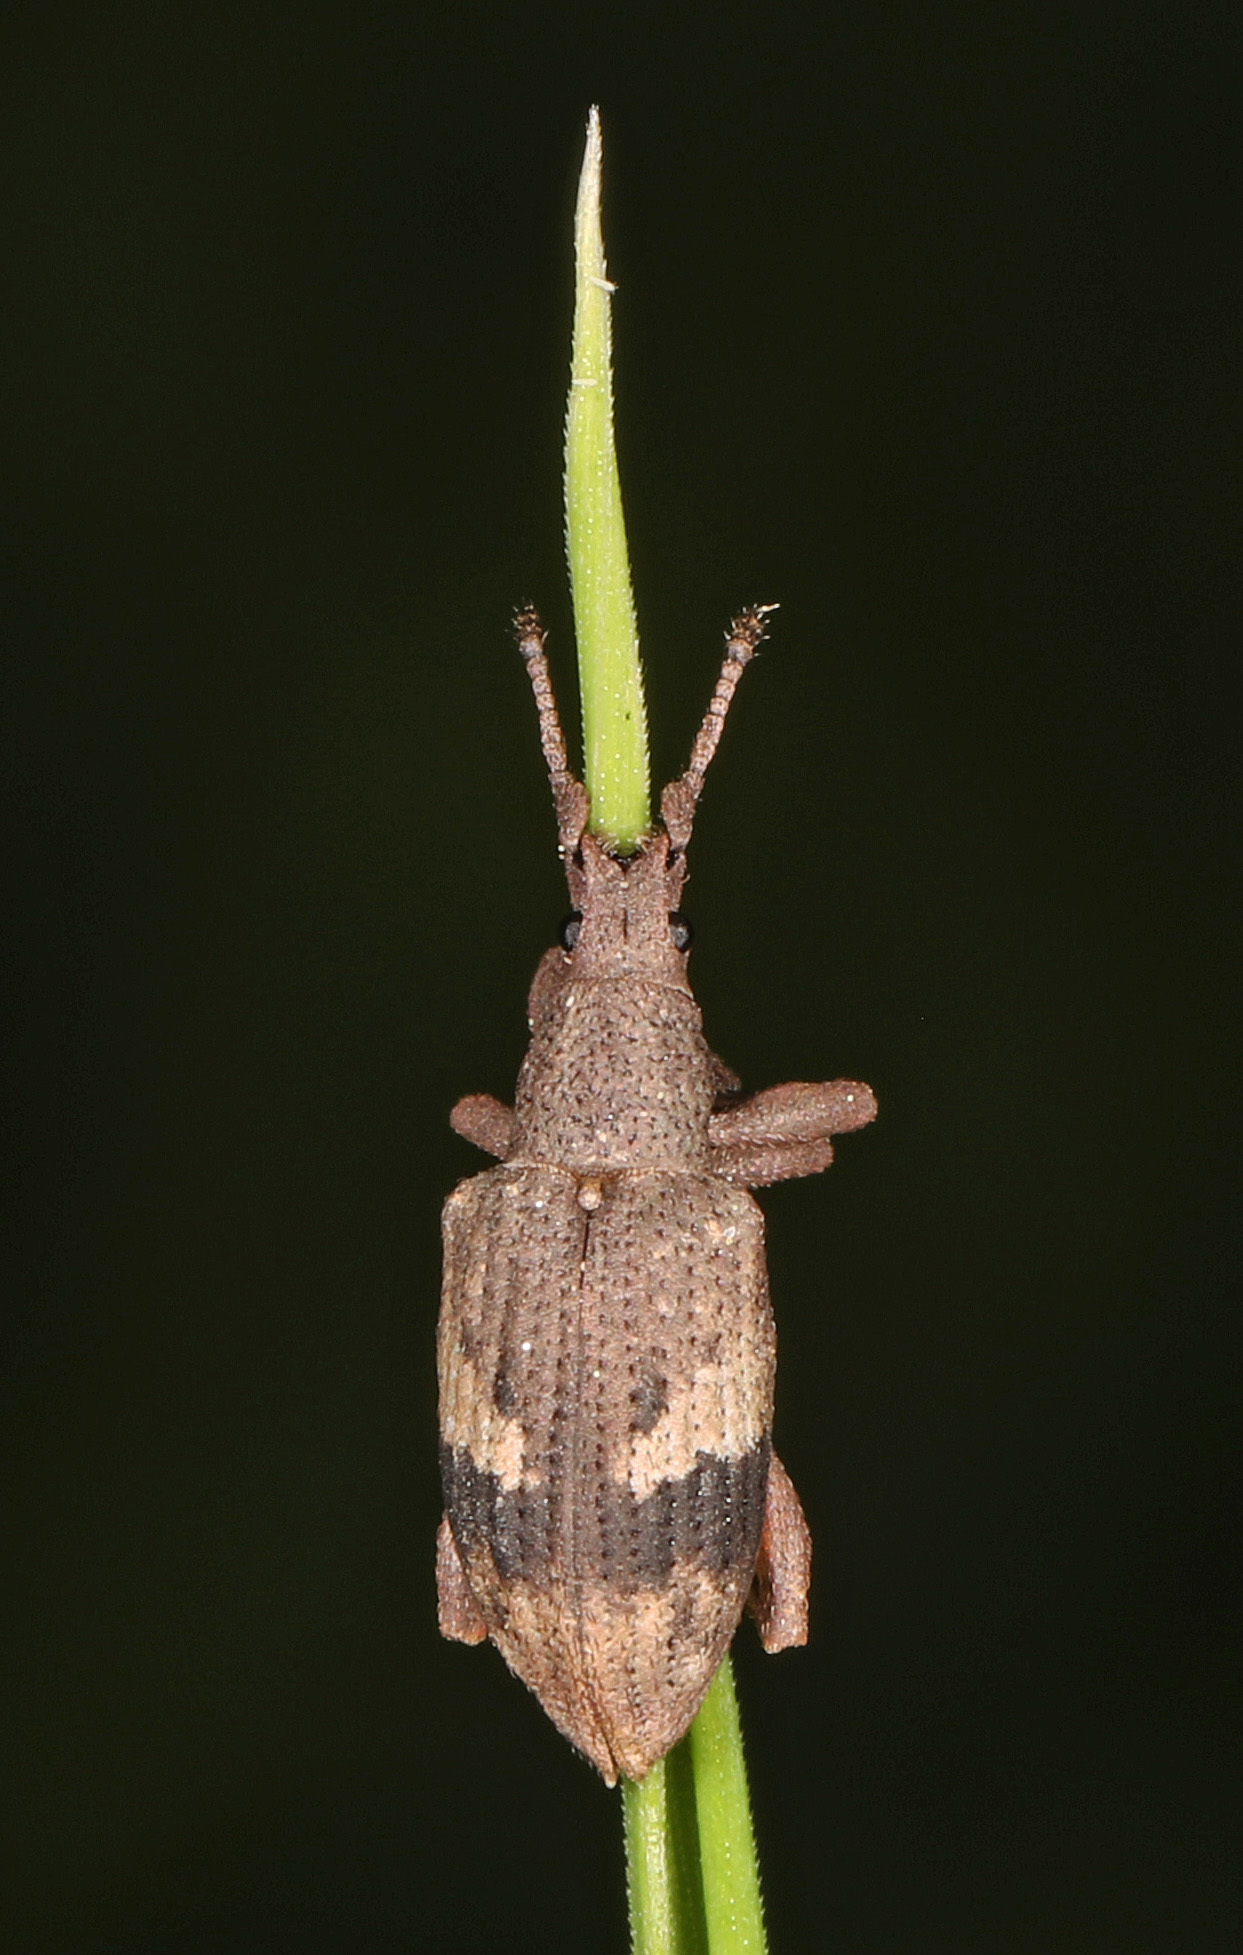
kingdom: Animalia
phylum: Arthropoda
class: Insecta
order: Coleoptera
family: Curculionidae
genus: Brachystylus
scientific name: Brachystylus
